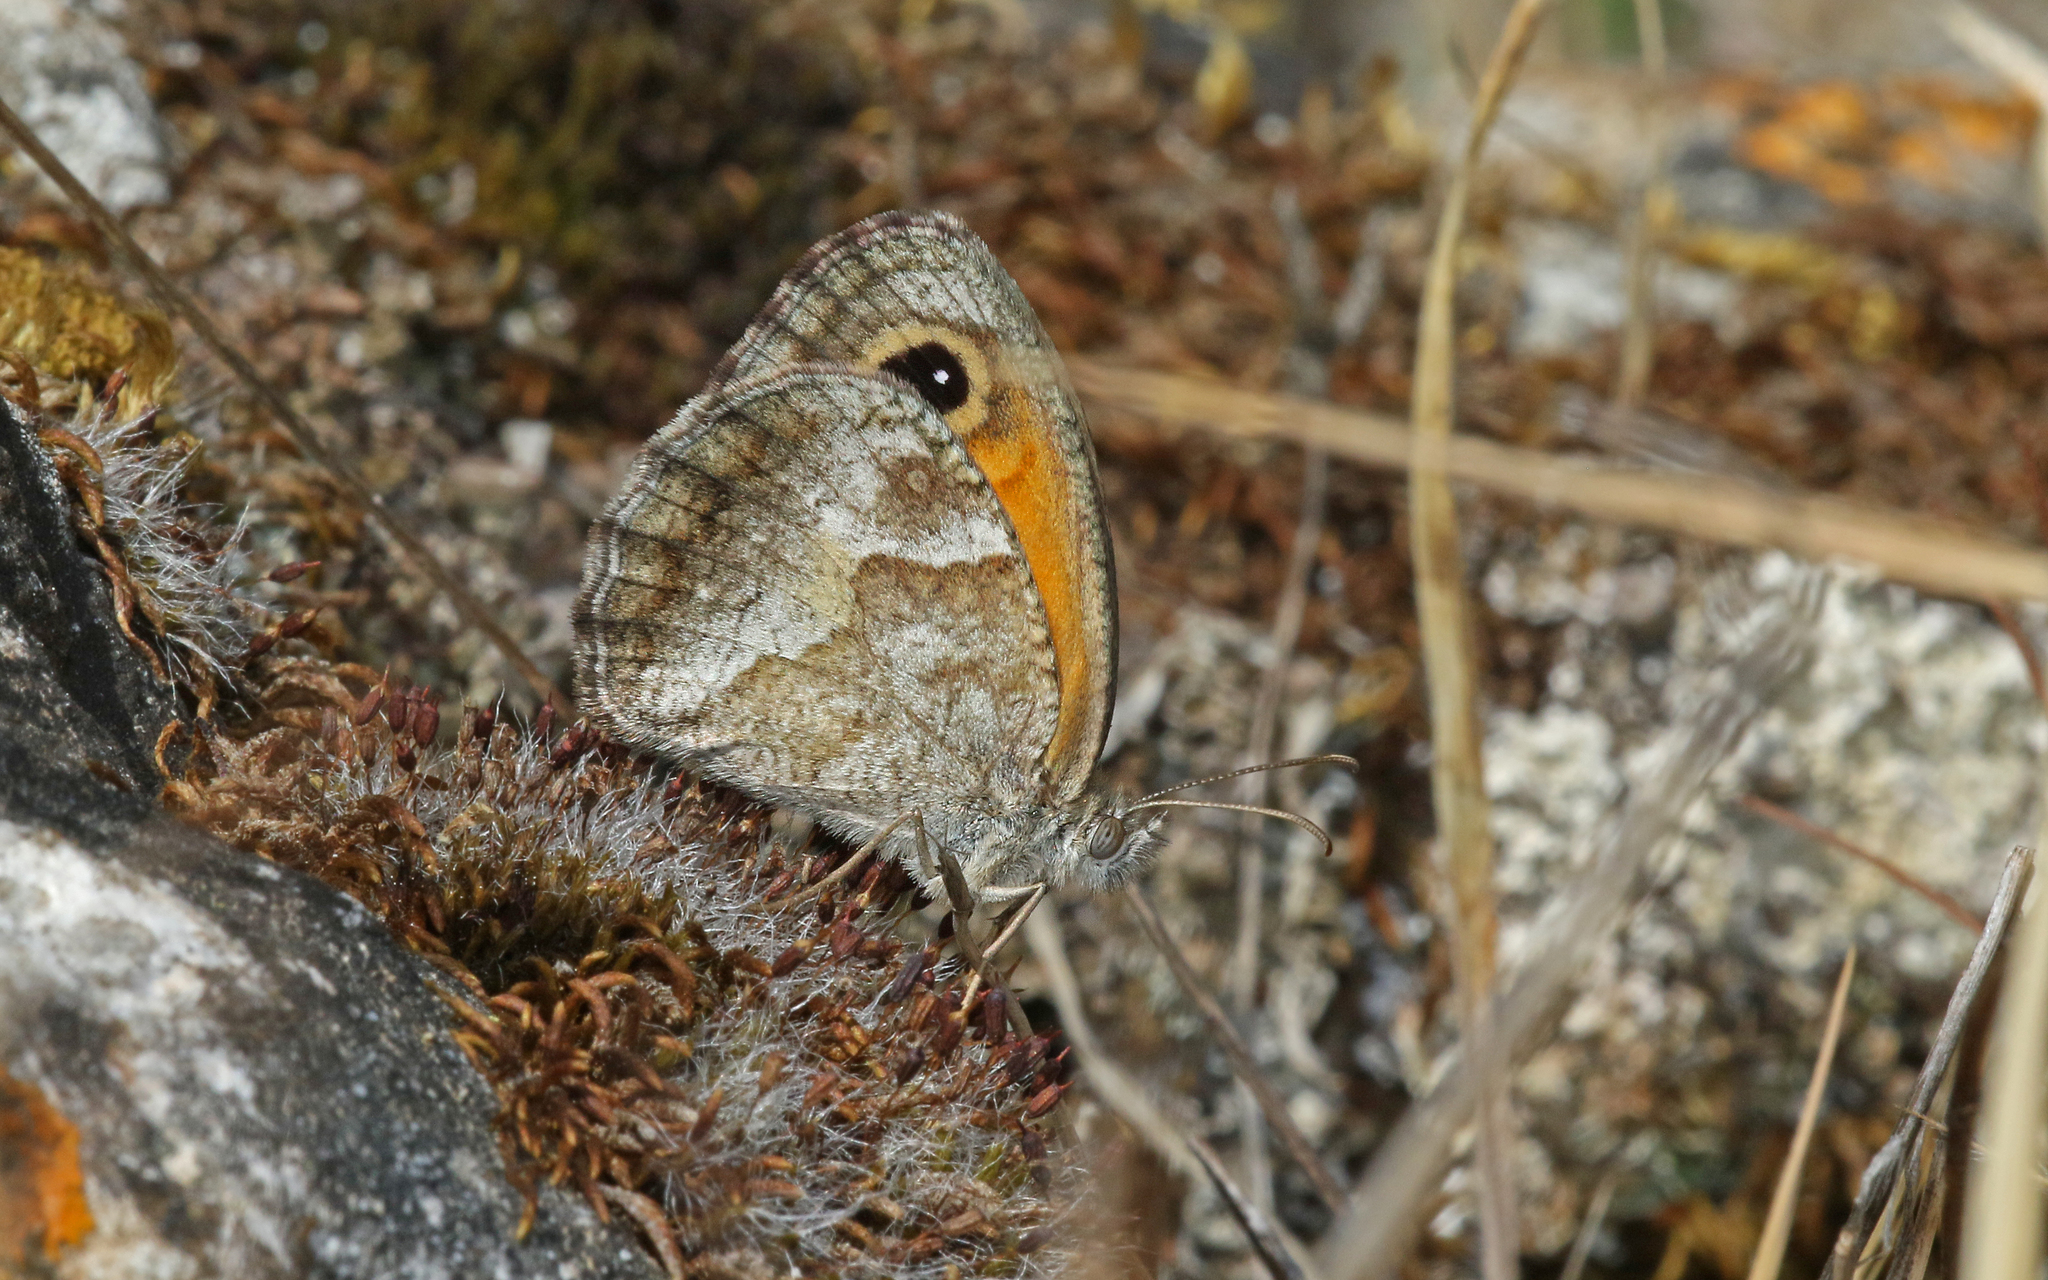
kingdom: Animalia
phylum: Arthropoda
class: Insecta
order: Lepidoptera
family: Nymphalidae
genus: Pyronia
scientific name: Pyronia cecilia
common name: Southern gatekeeper
